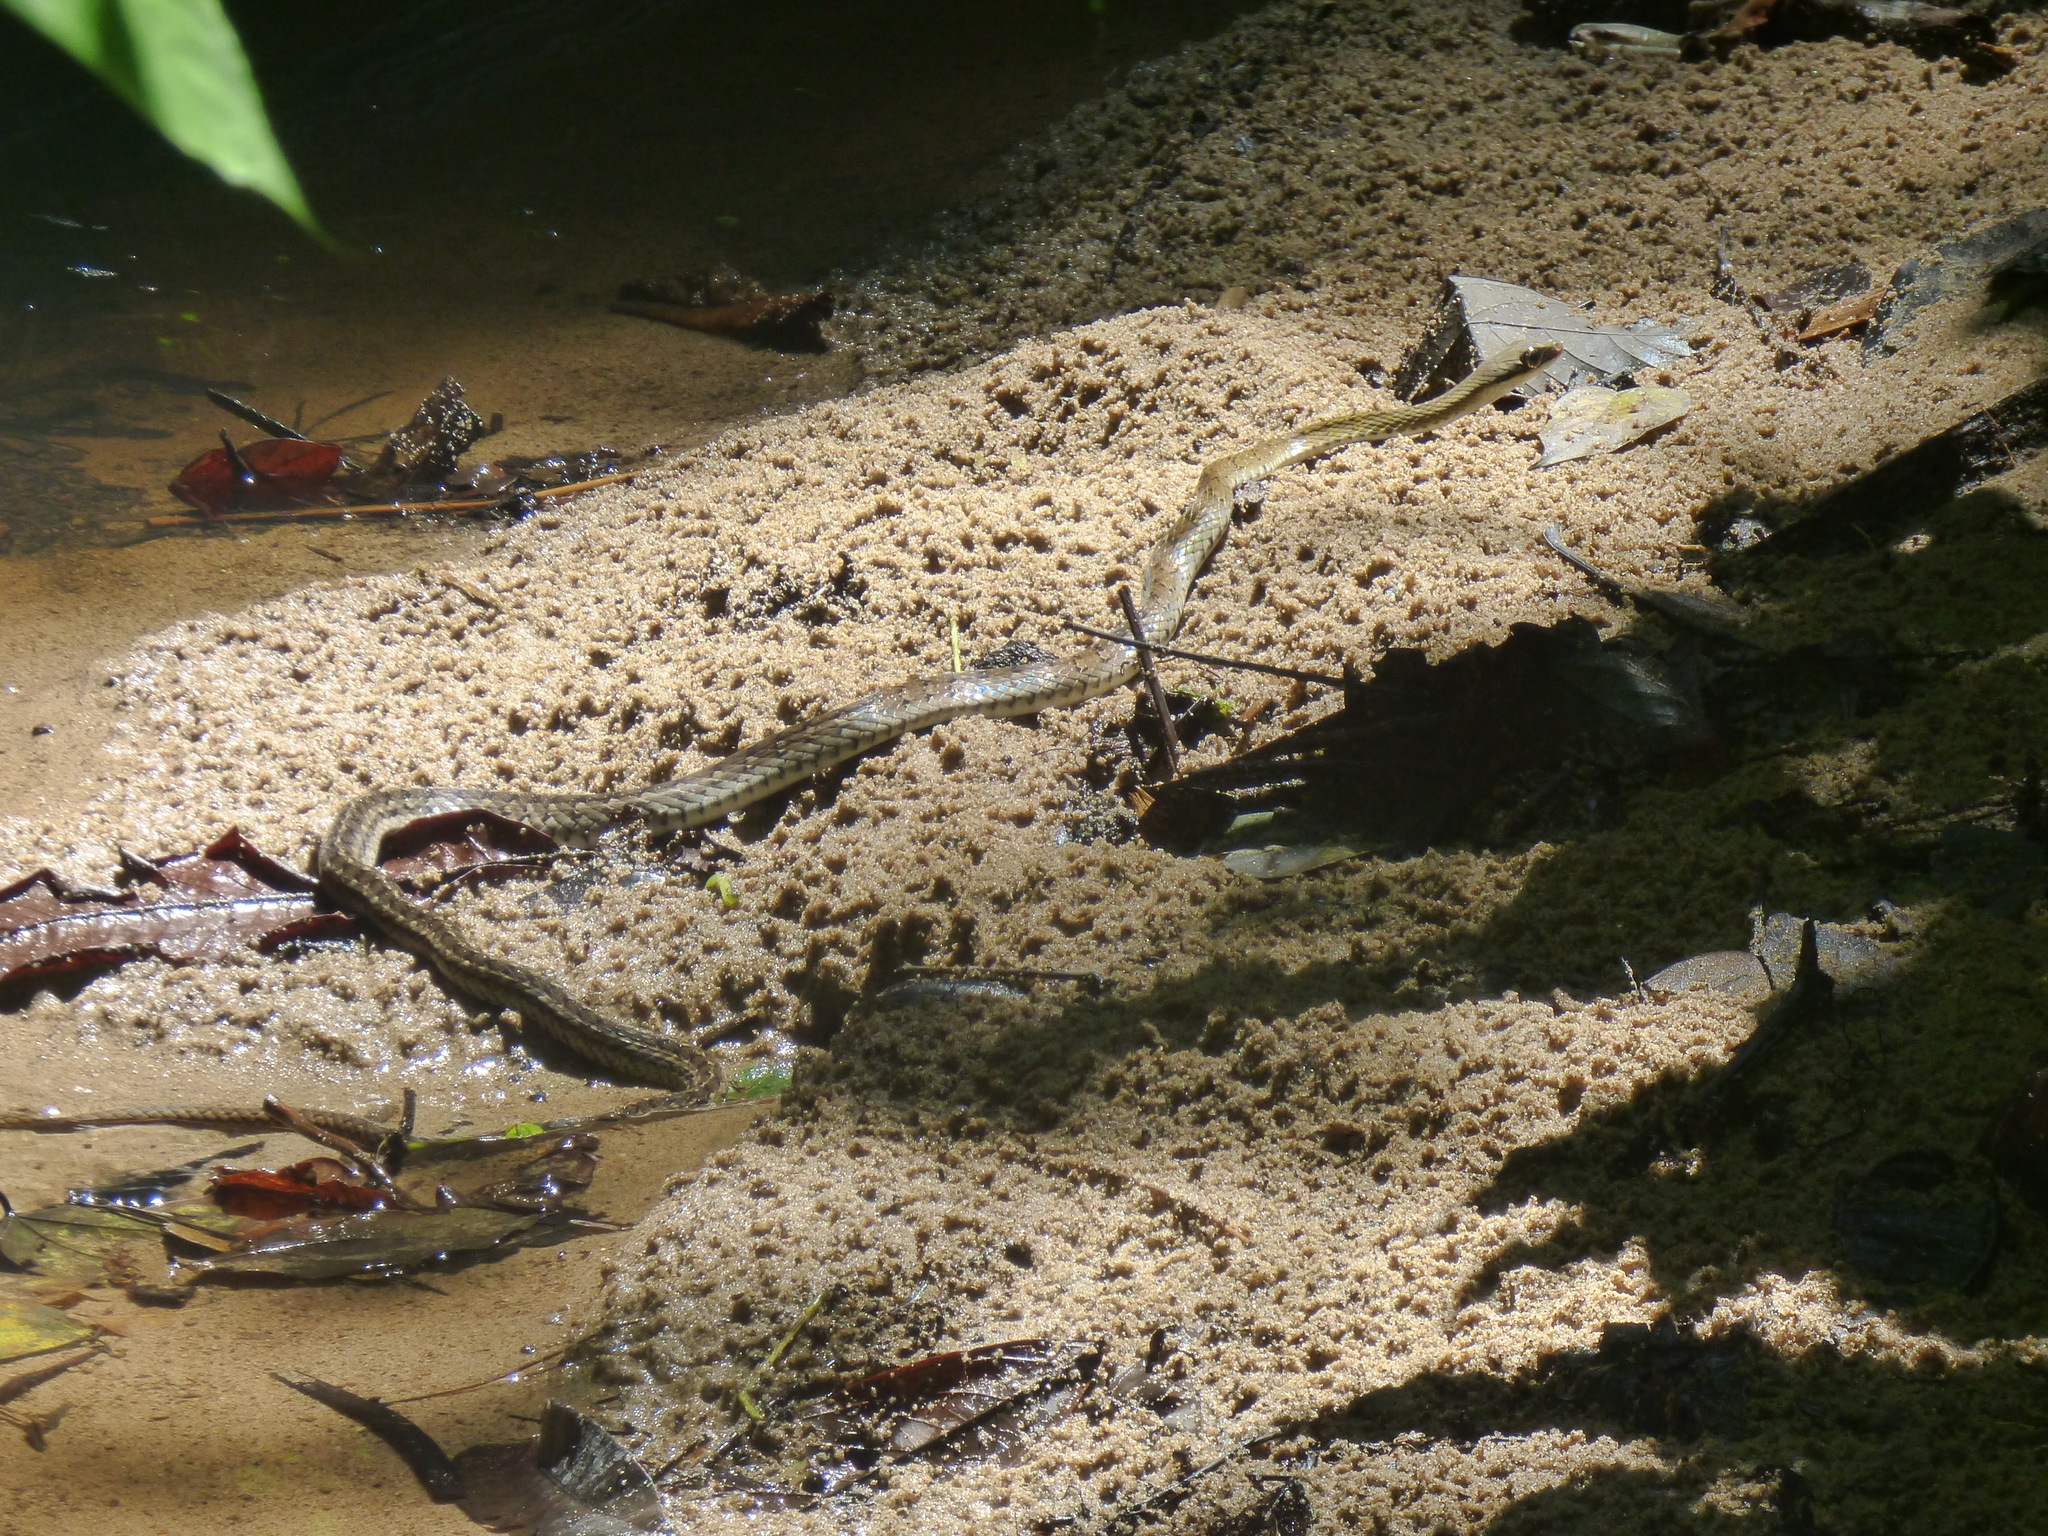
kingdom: Animalia
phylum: Chordata
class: Squamata
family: Colubridae
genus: Dendrophidion
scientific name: Dendrophidion percarinatum
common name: South american forest racer
